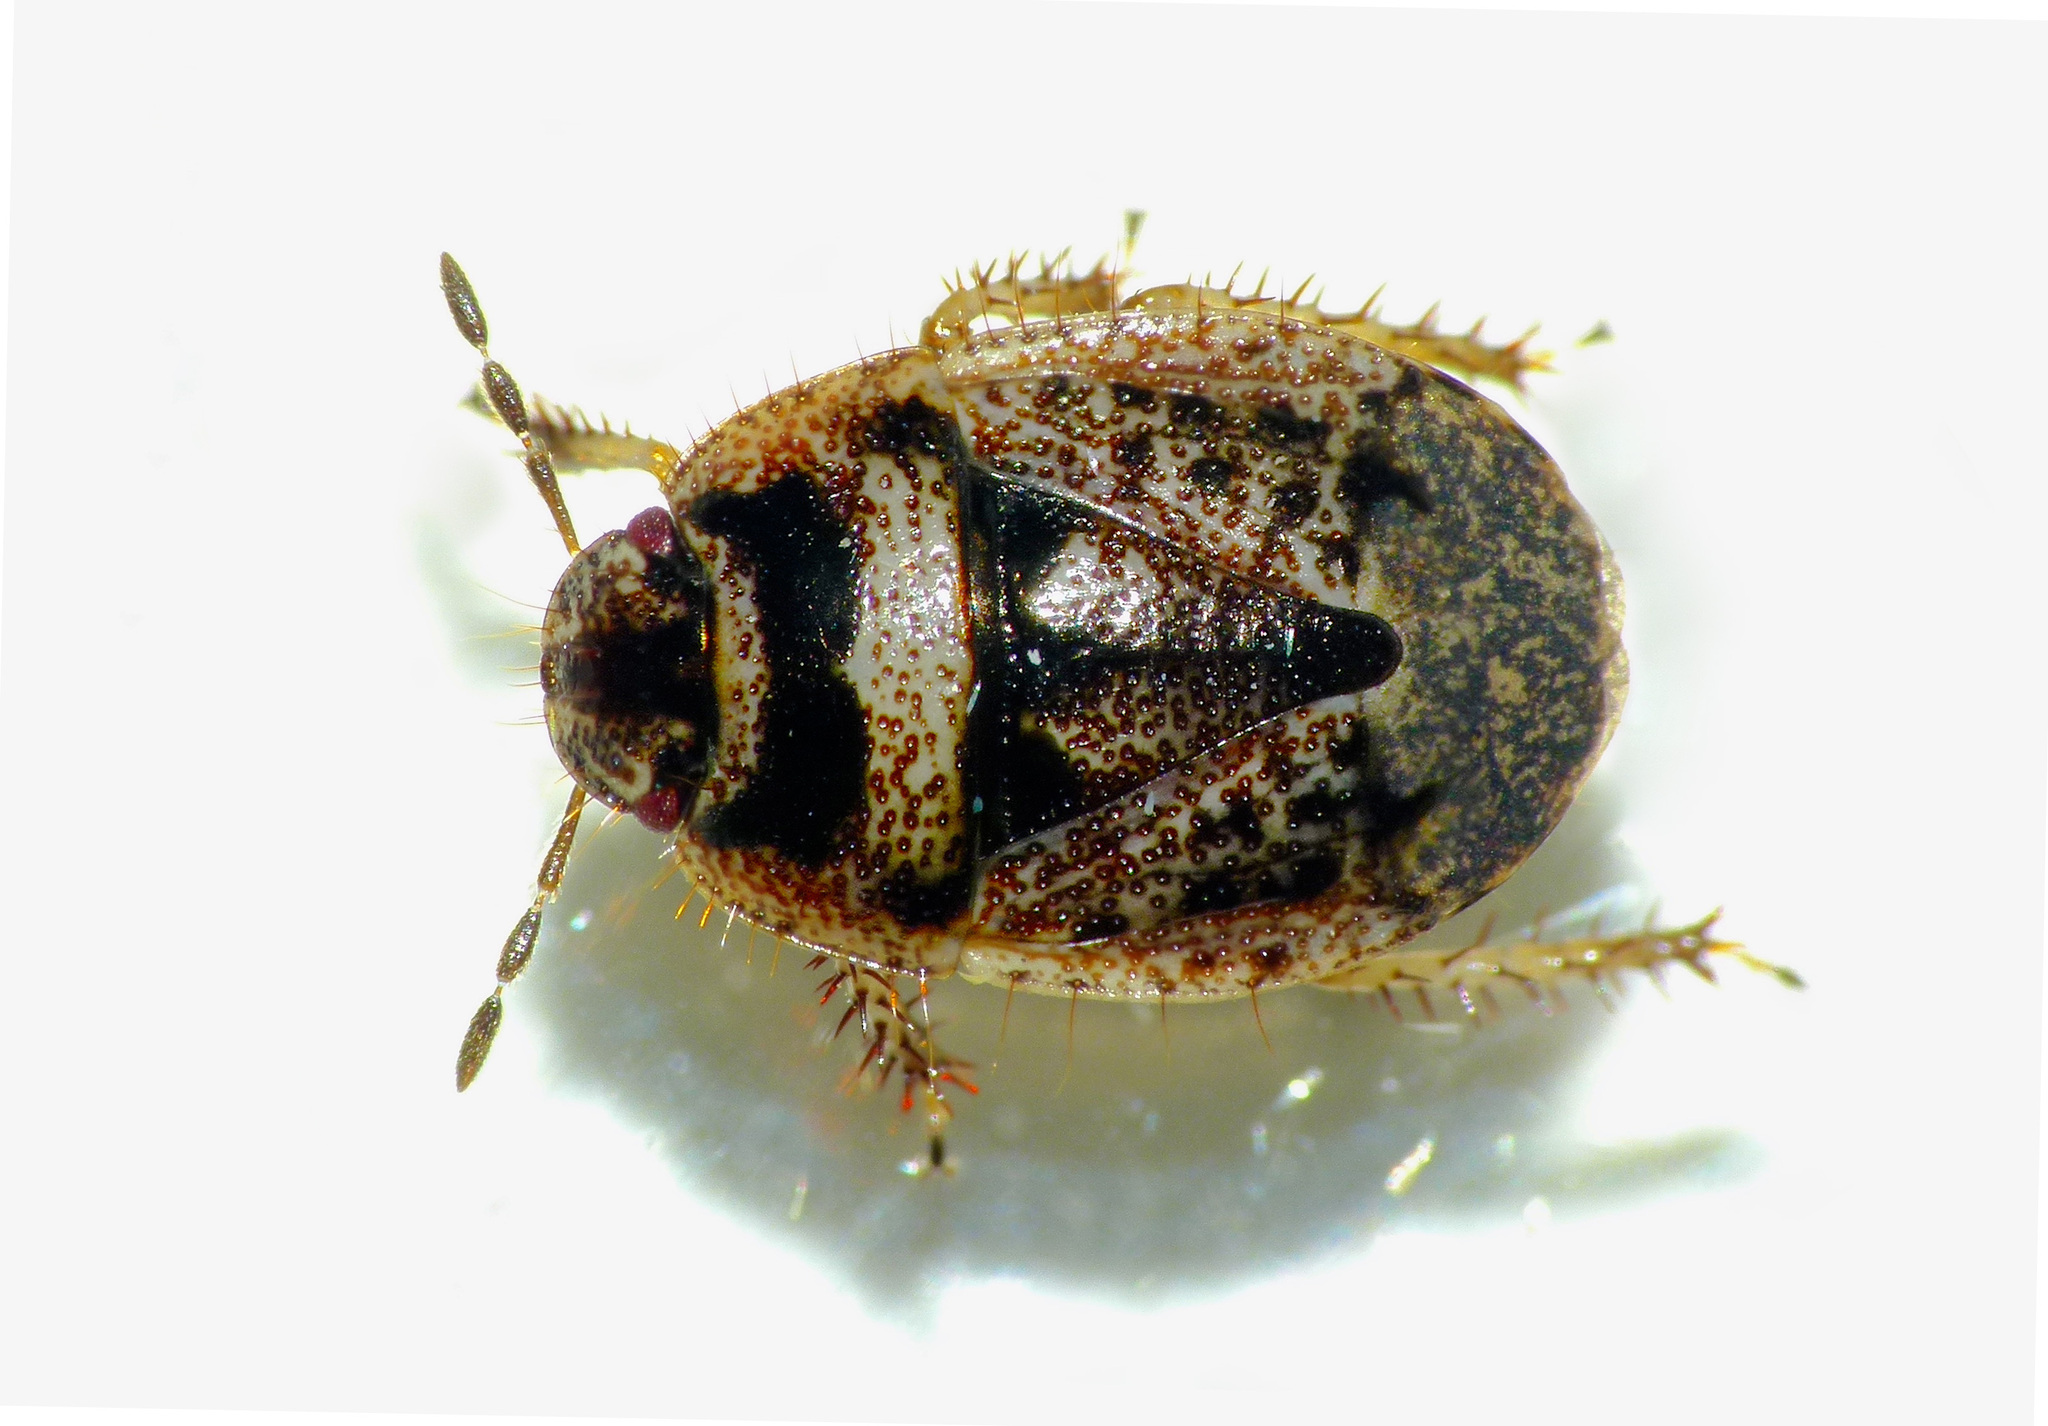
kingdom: Animalia
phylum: Arthropoda
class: Insecta
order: Hemiptera
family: Cydnidae
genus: Cydnochoerus
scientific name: Cydnochoerus
